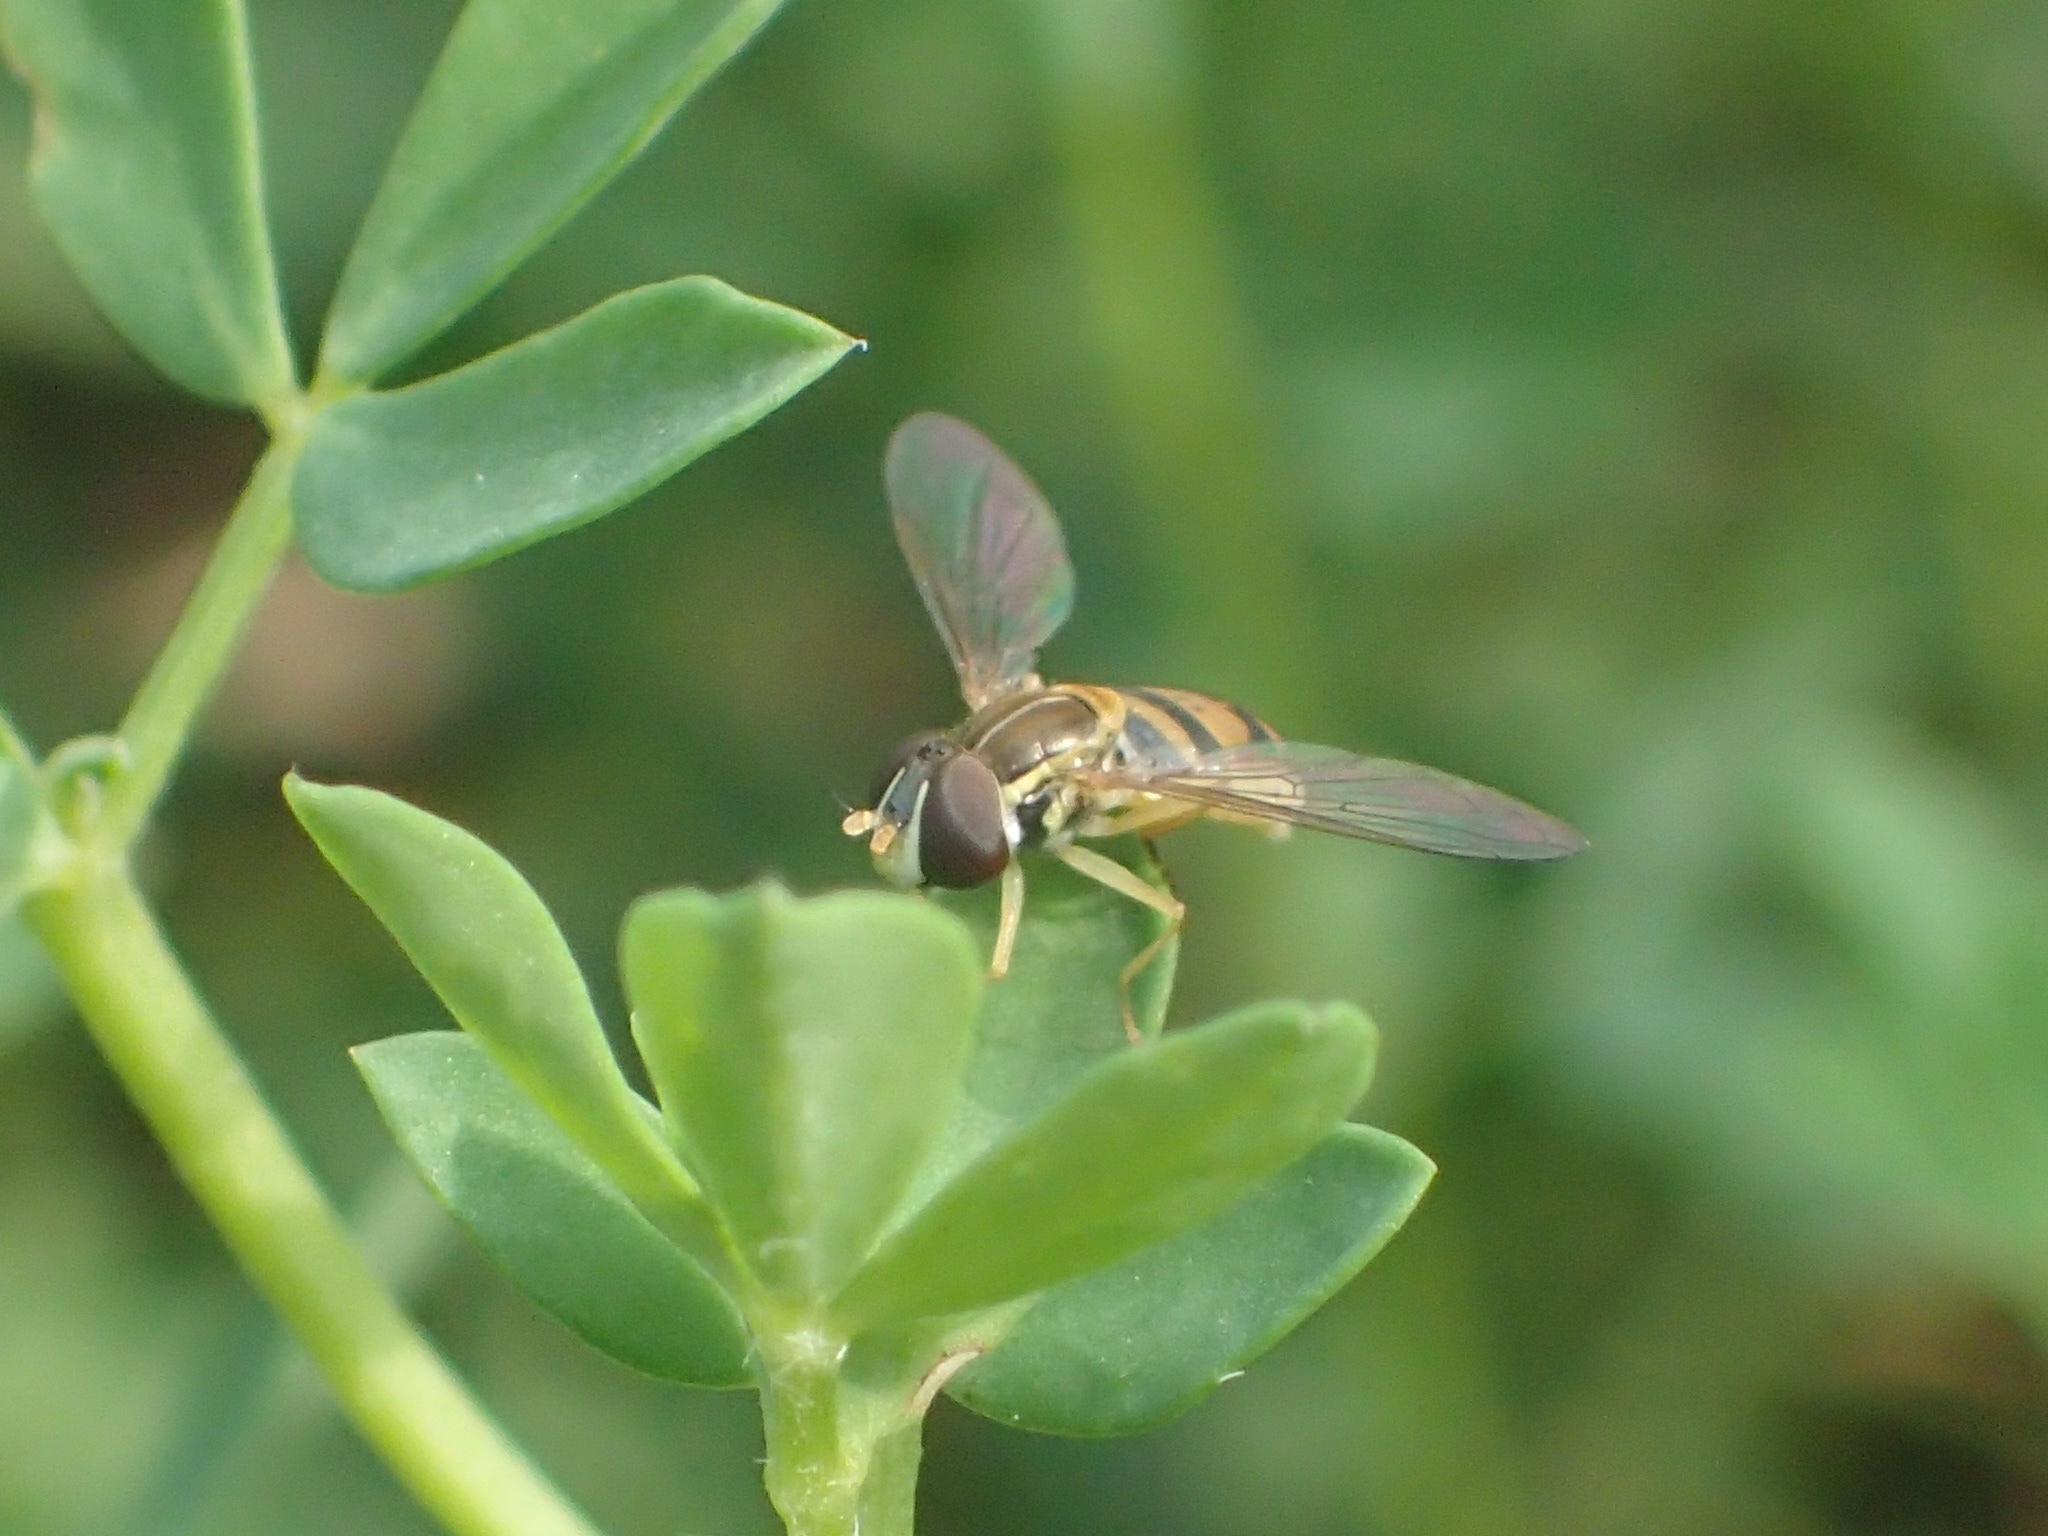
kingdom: Animalia
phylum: Arthropoda
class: Insecta
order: Diptera
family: Syrphidae
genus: Toxomerus
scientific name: Toxomerus marginatus
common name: Syrphid fly
